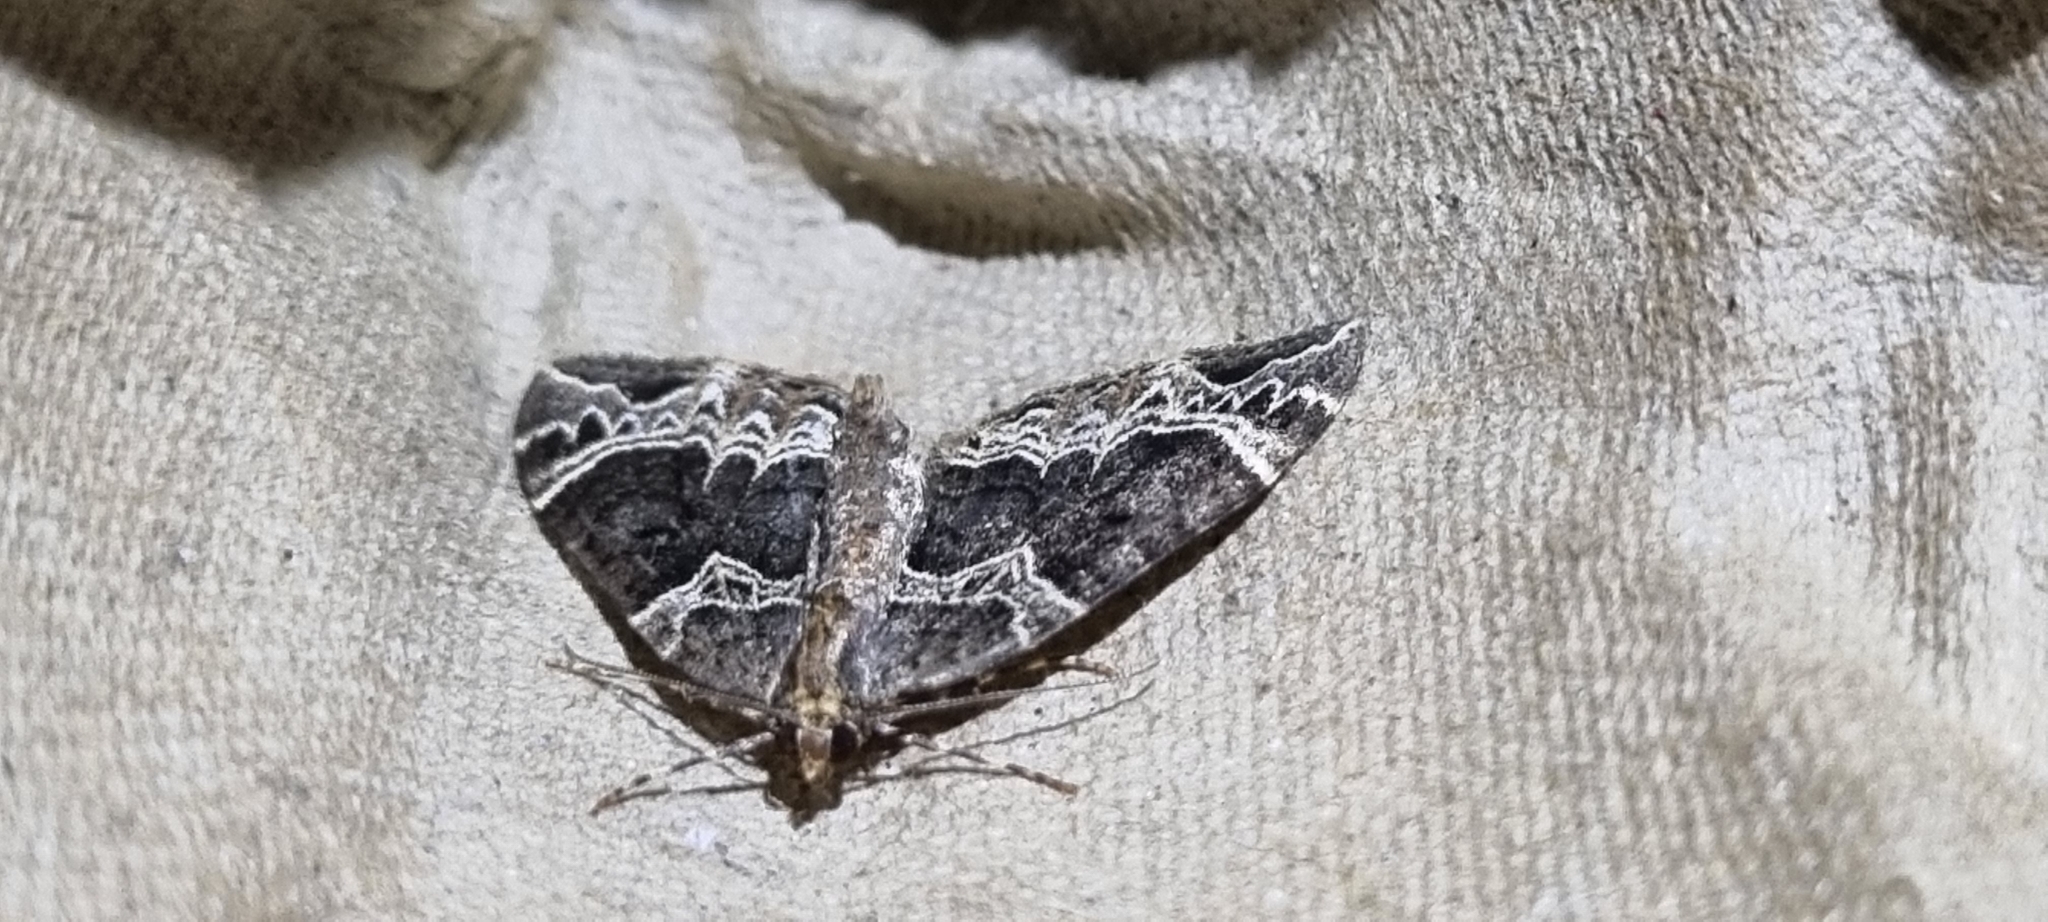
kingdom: Animalia
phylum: Arthropoda
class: Insecta
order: Lepidoptera
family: Geometridae
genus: Ecliptopera
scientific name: Ecliptopera silaceata
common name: Small phoenix
